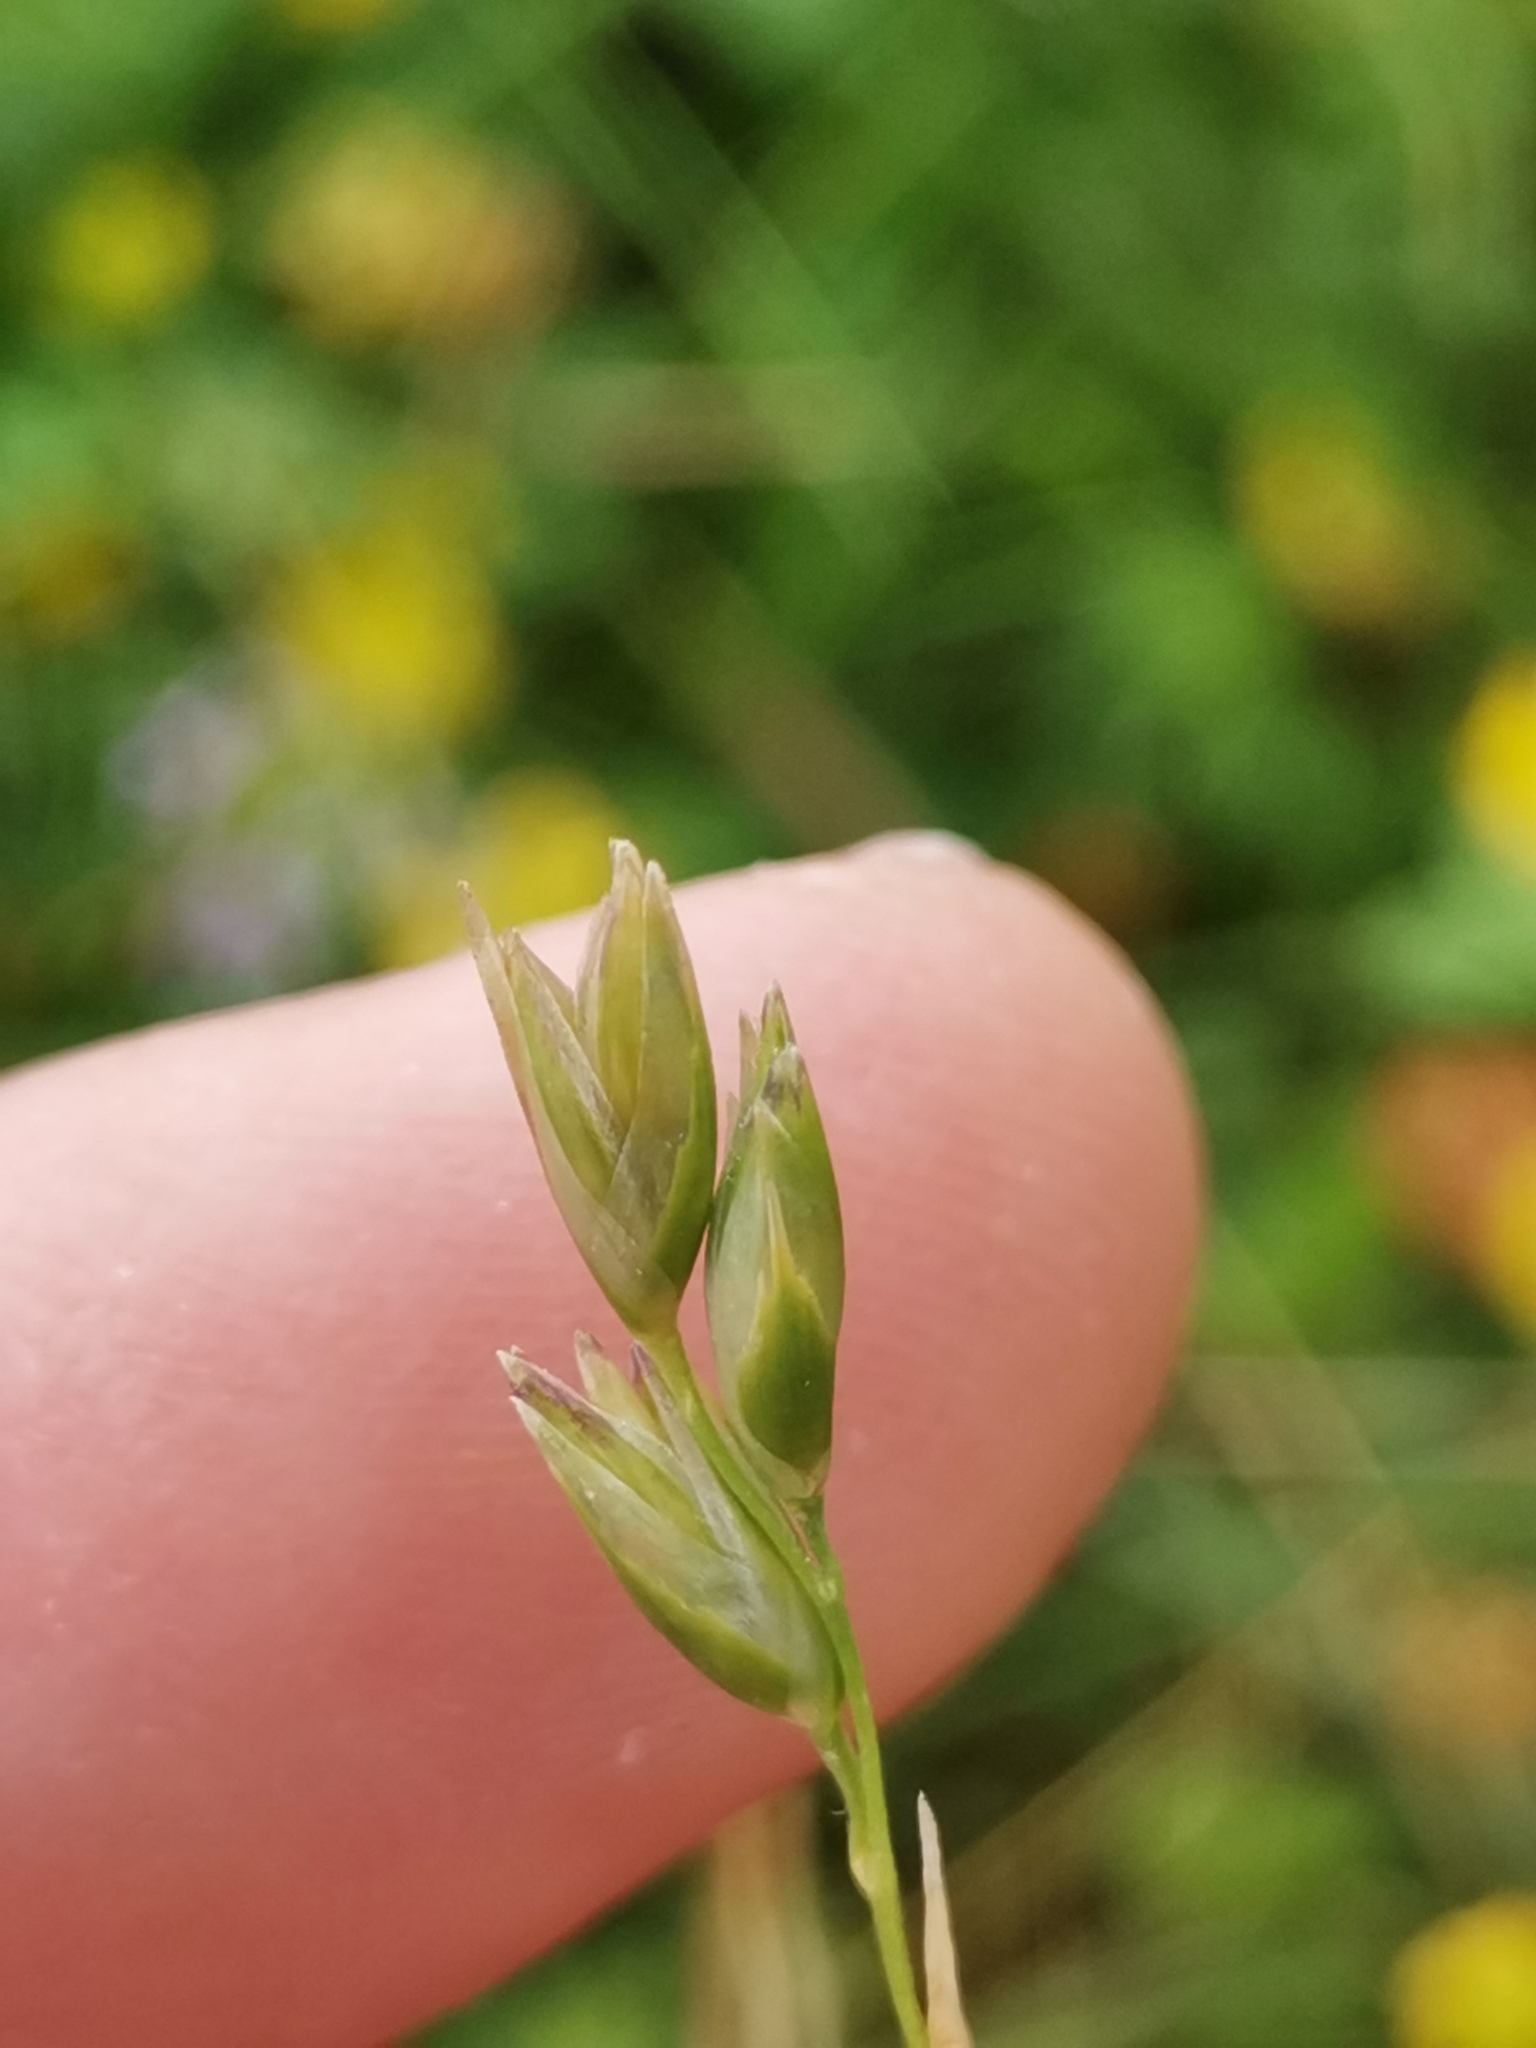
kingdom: Plantae
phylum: Tracheophyta
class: Liliopsida
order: Poales
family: Poaceae
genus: Danthonia
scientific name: Danthonia decumbens
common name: Common heathgrass
